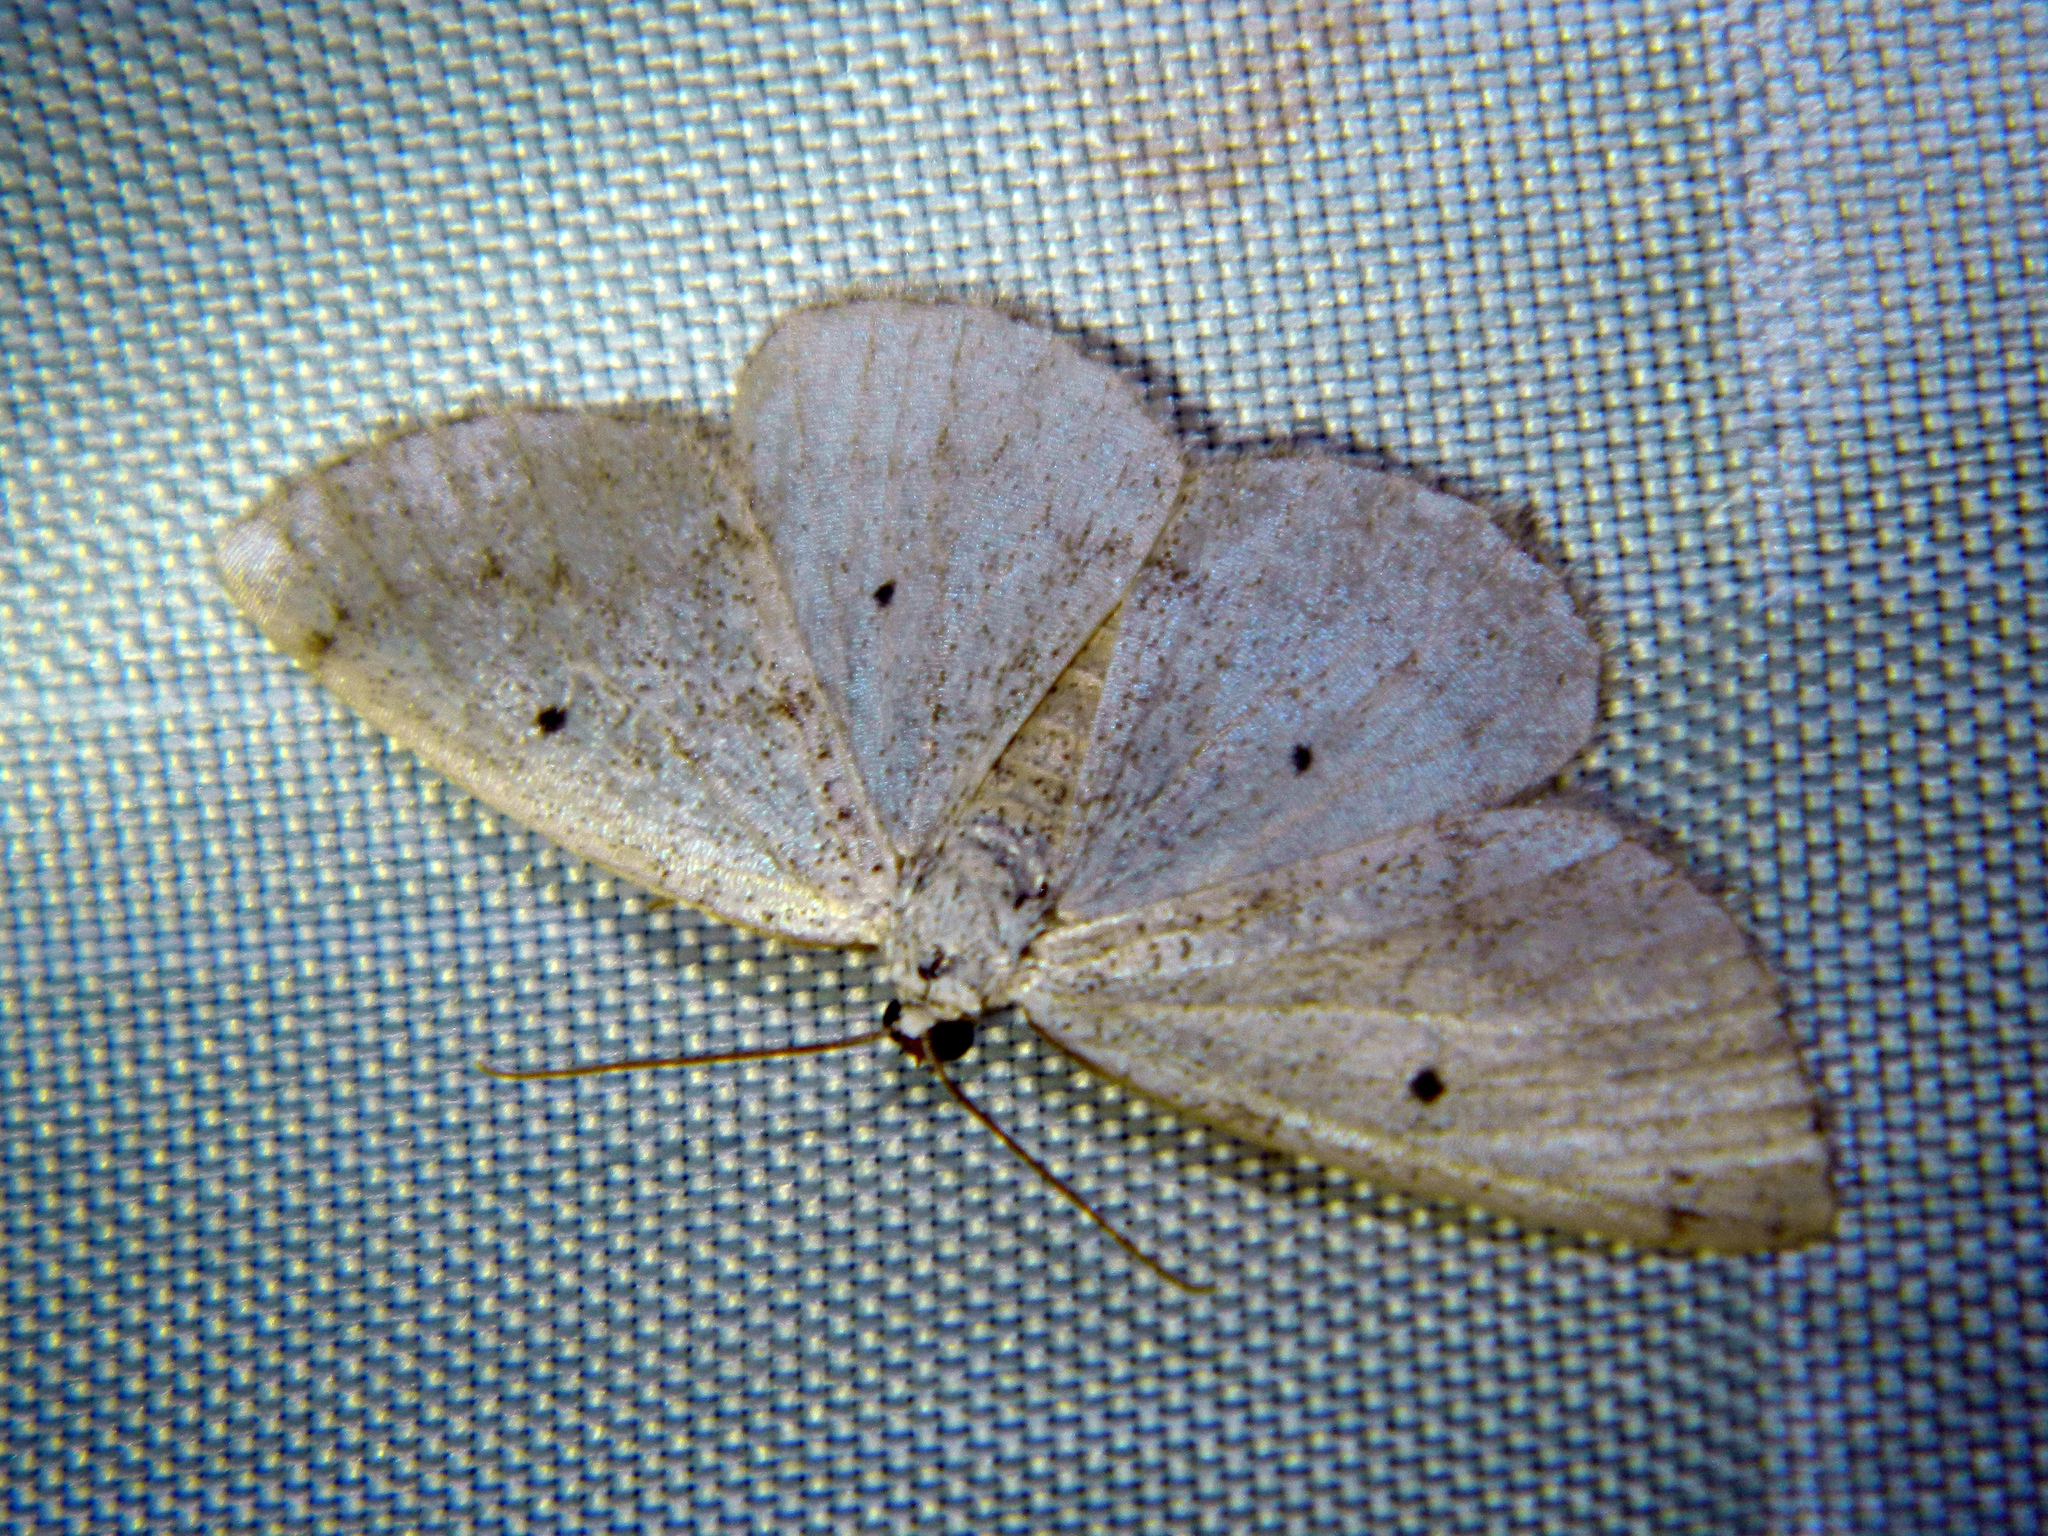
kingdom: Animalia
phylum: Arthropoda
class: Insecta
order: Lepidoptera
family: Geometridae
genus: Lomographa
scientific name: Lomographa glomeraria
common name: Gray spring moth
